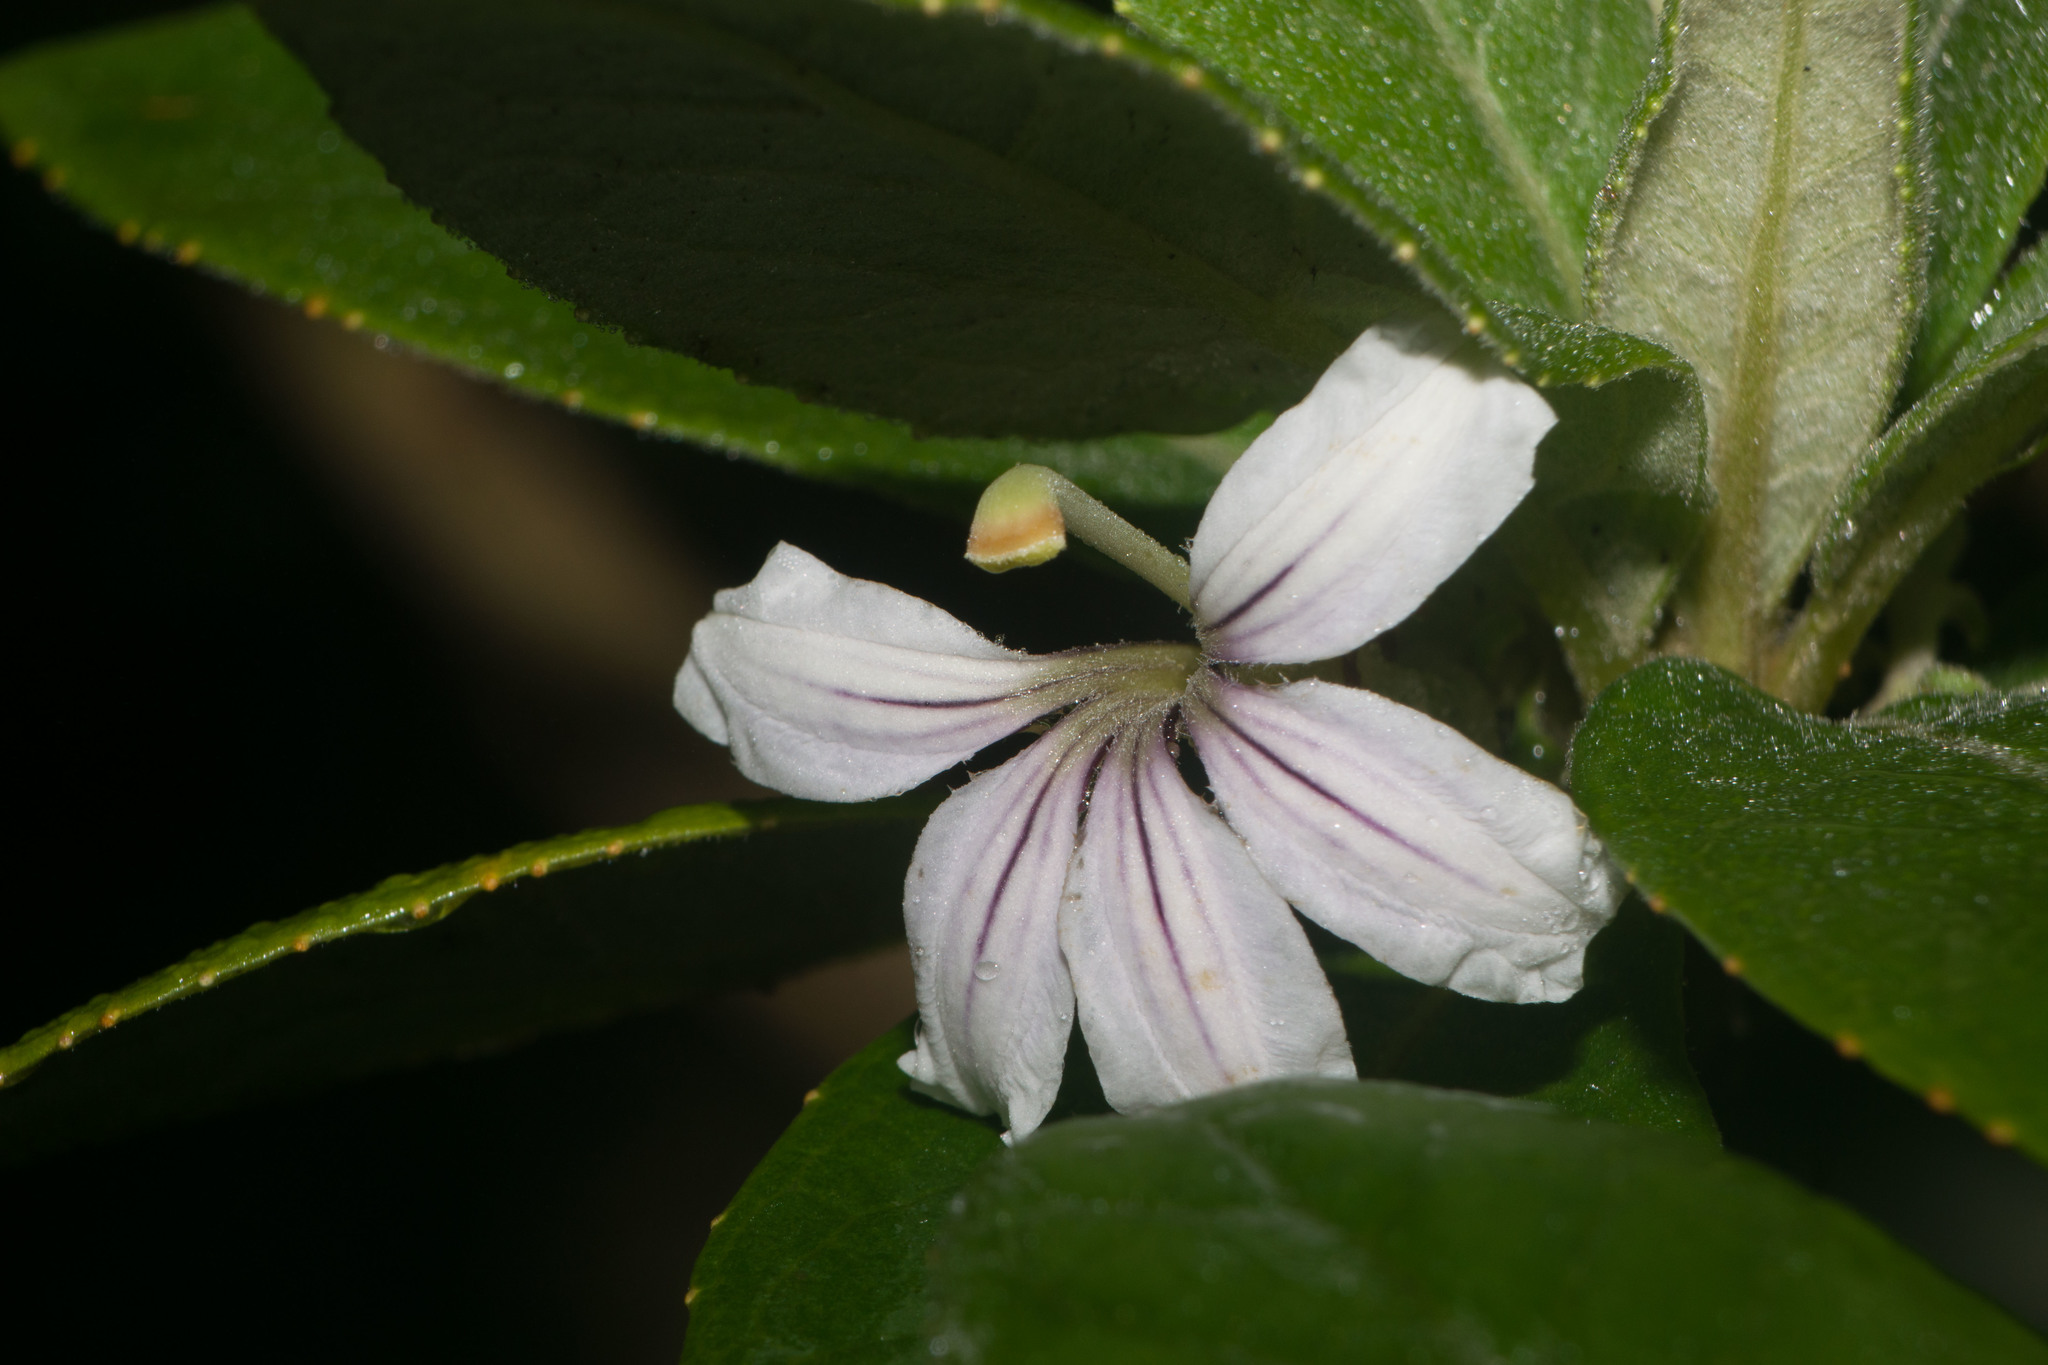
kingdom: Plantae
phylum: Tracheophyta
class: Magnoliopsida
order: Asterales
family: Goodeniaceae
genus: Scaevola
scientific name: Scaevola mollis
